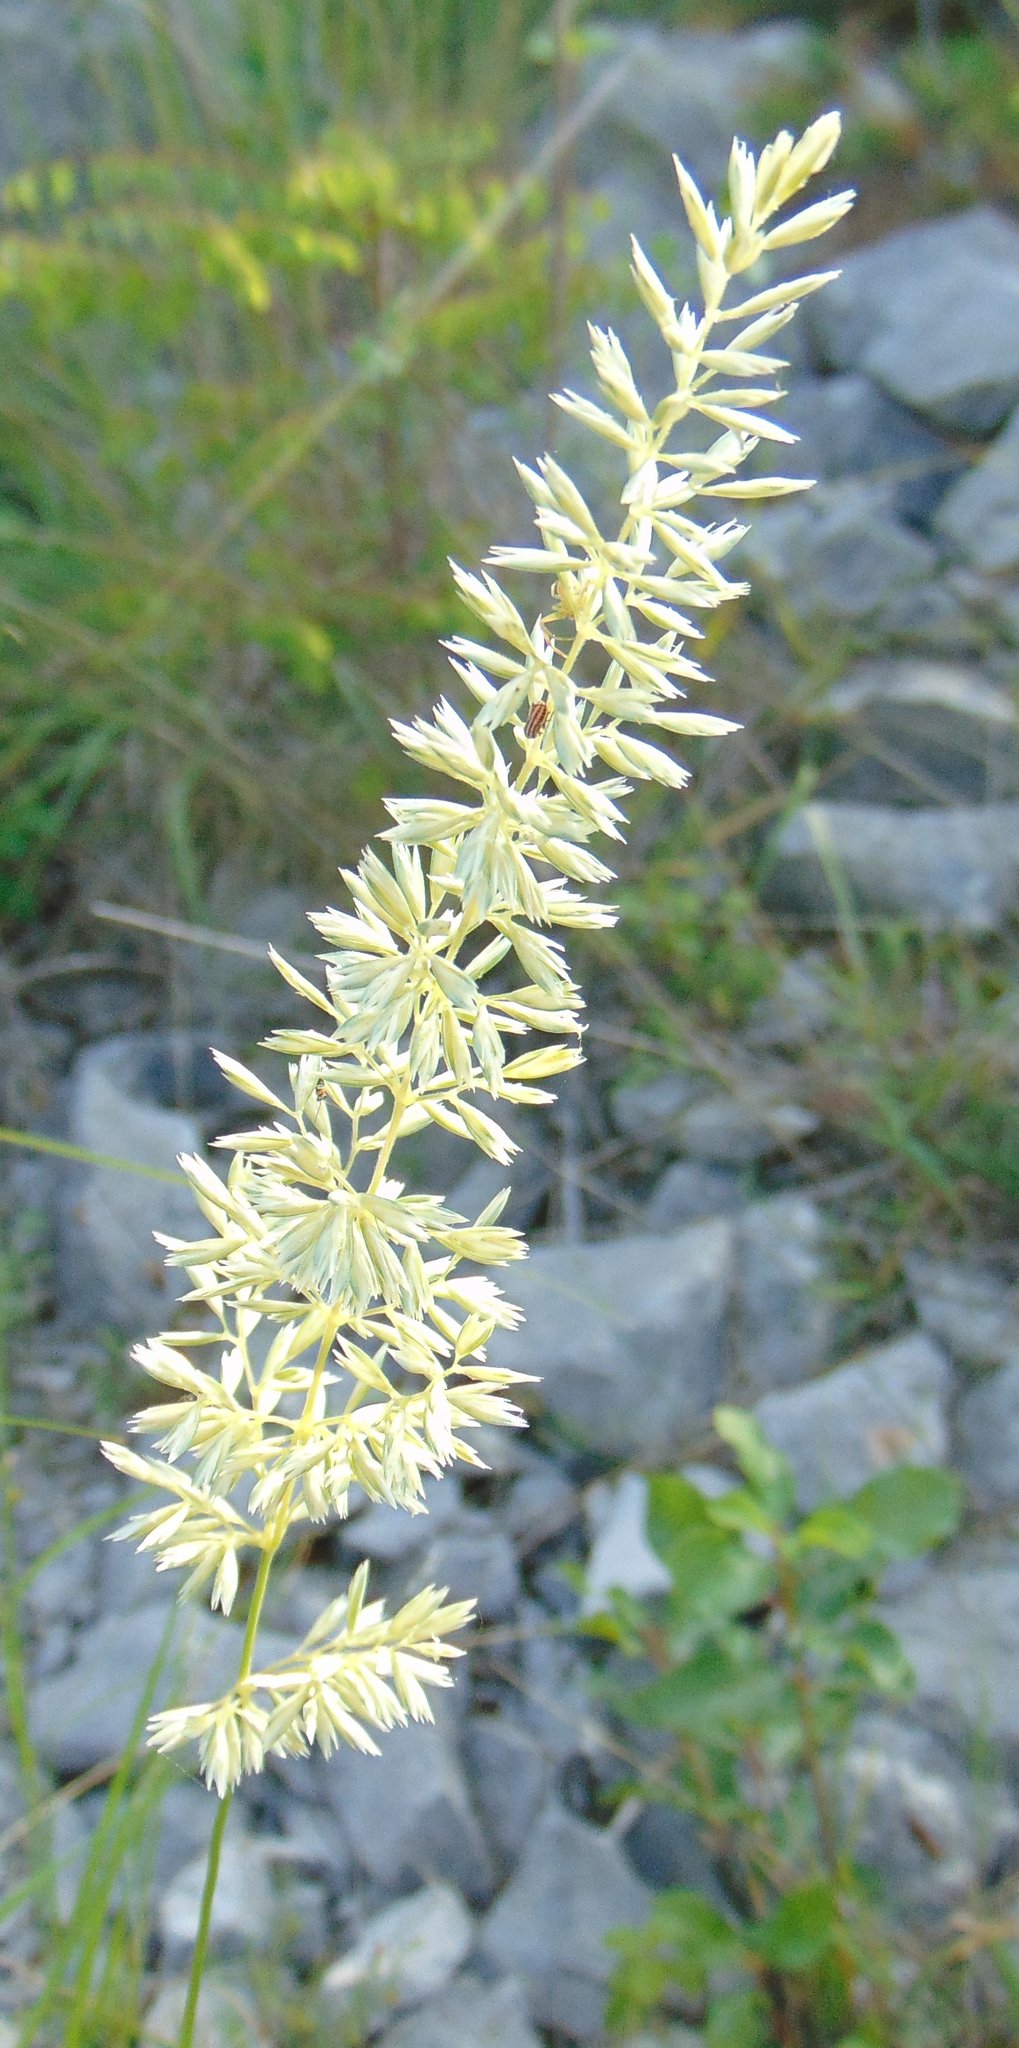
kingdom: Plantae
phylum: Tracheophyta
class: Liliopsida
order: Poales
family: Poaceae
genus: Koeleria
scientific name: Koeleria splendens
